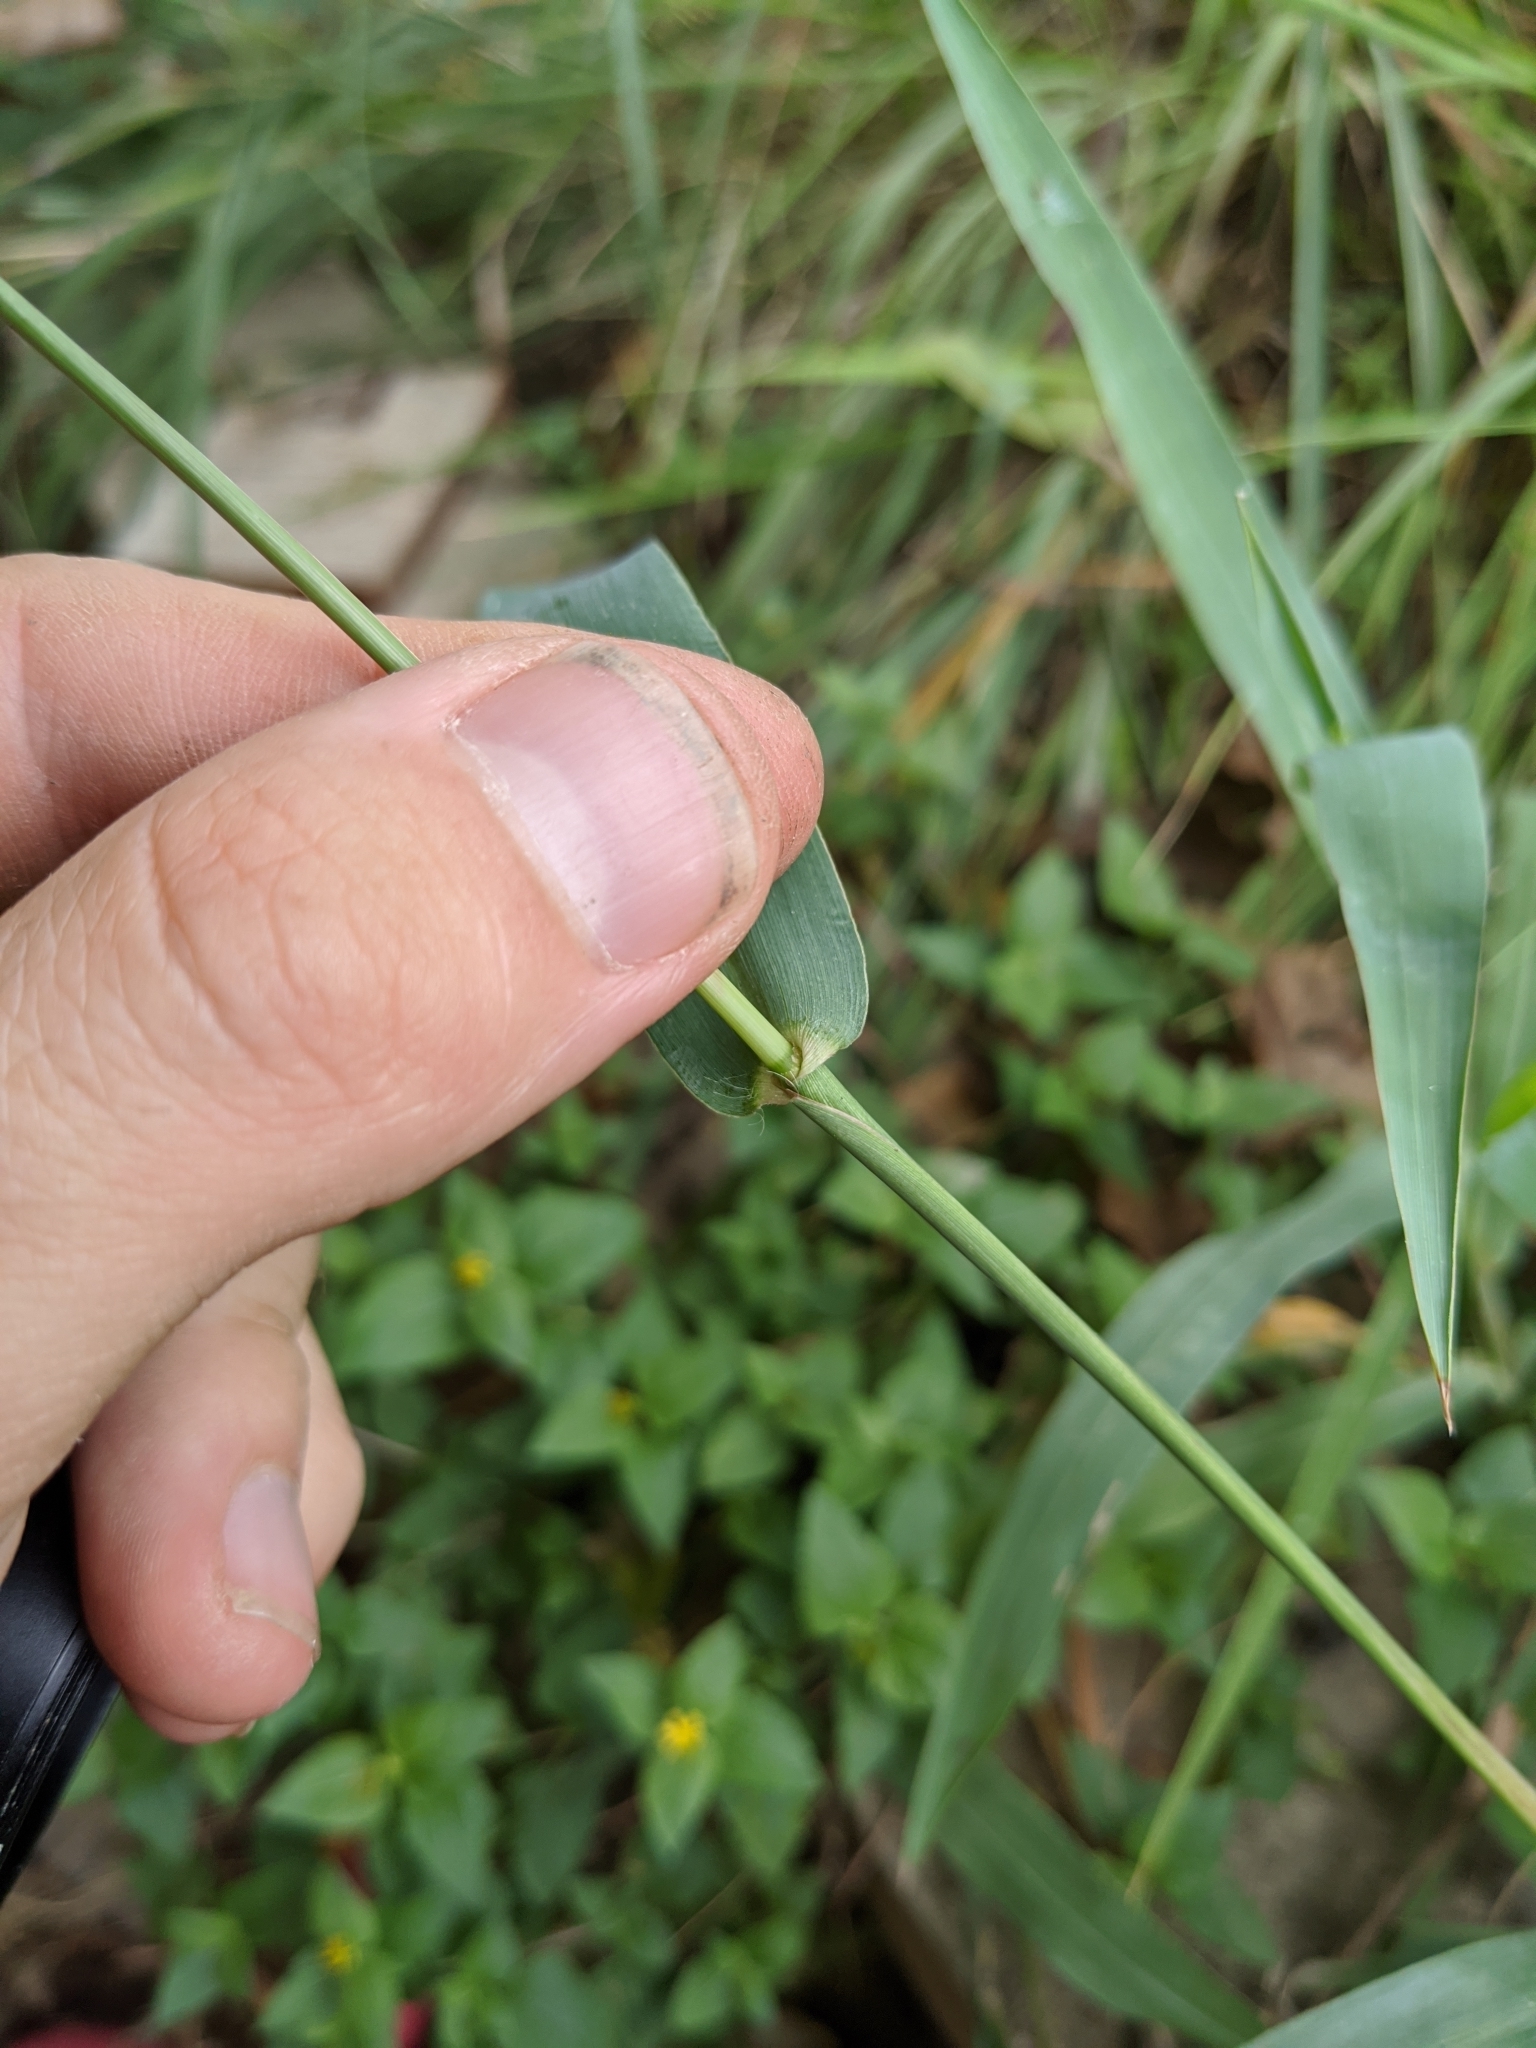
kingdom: Plantae
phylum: Tracheophyta
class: Liliopsida
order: Poales
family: Poaceae
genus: Paspalum
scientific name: Paspalum pubiflorum
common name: Hairy-seed paspalum
